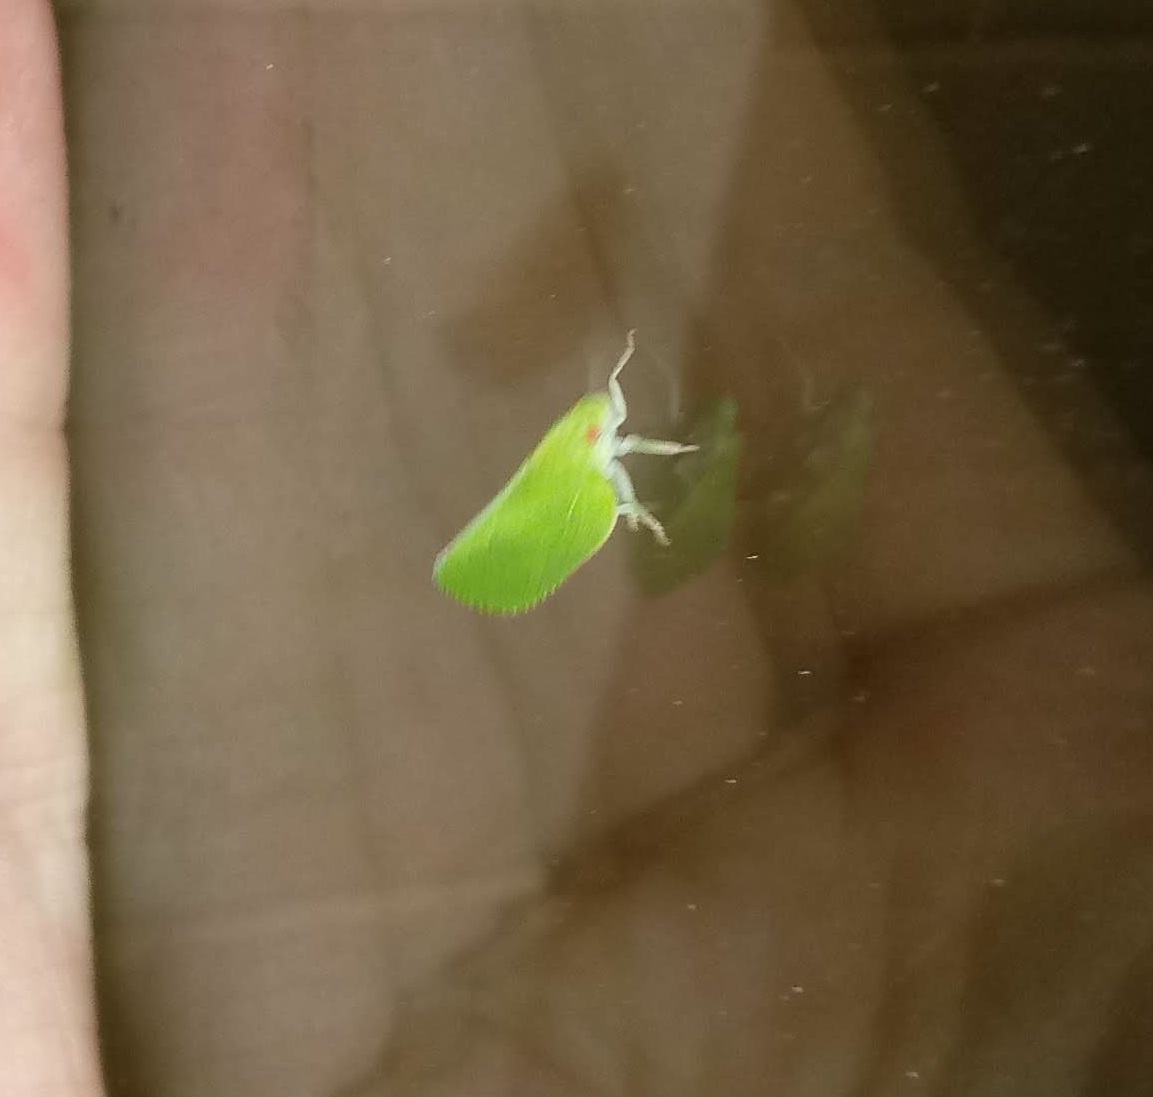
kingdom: Animalia
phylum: Arthropoda
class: Insecta
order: Hemiptera
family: Acanaloniidae
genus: Acanalonia
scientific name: Acanalonia conica
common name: Green cone-headed planthopper
